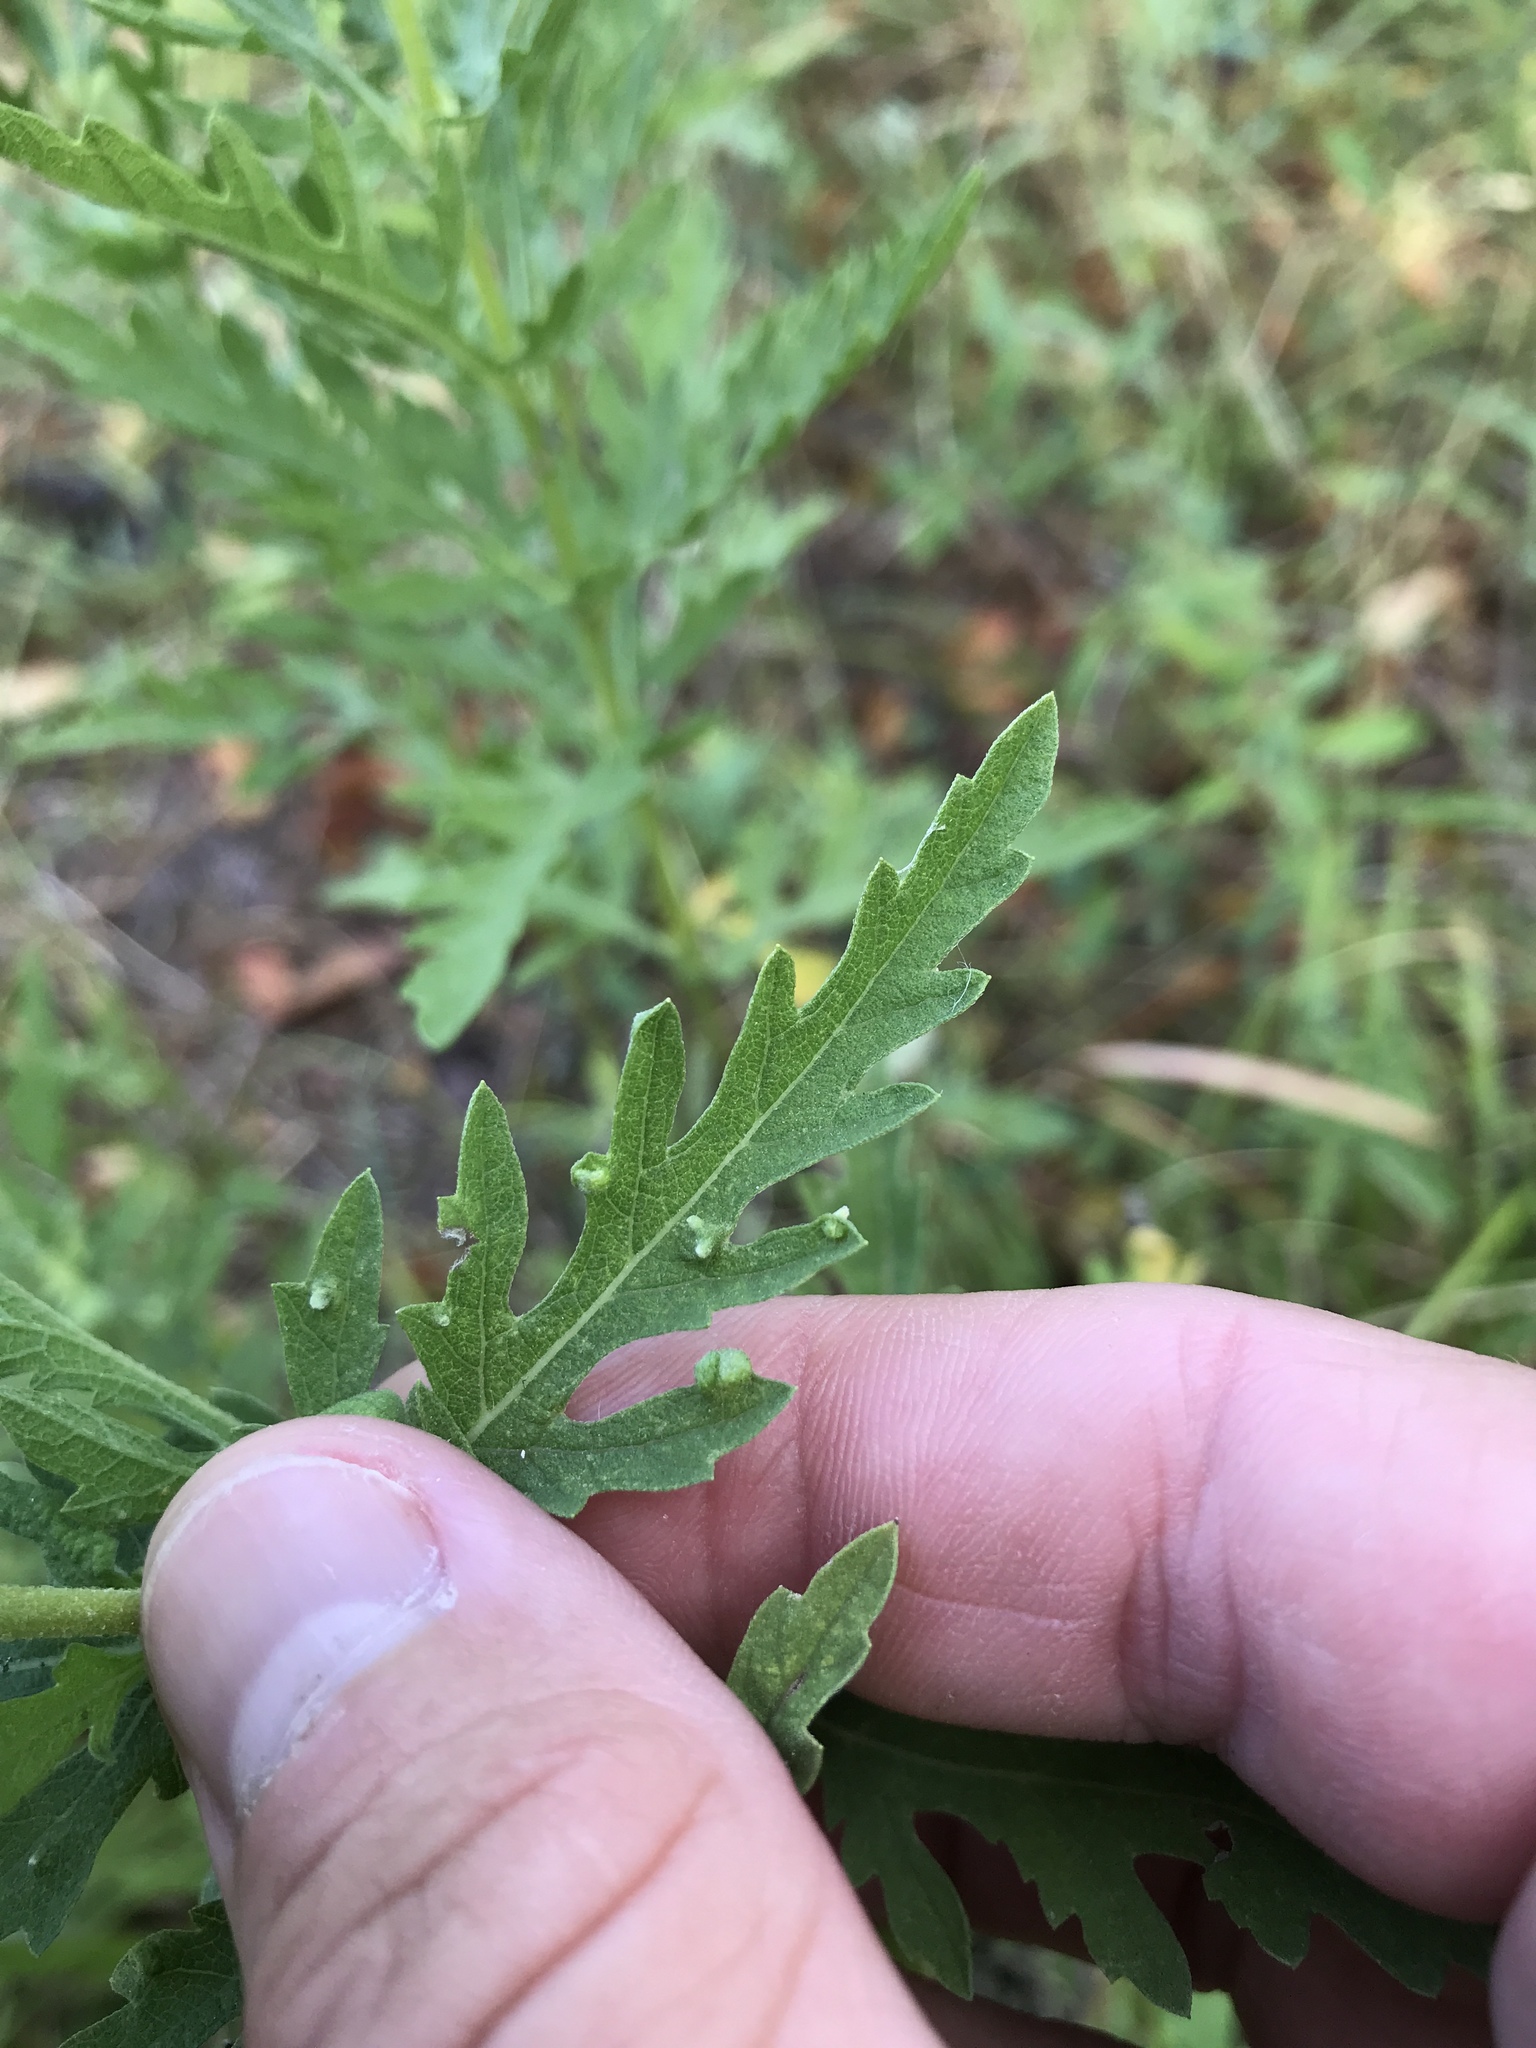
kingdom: Animalia
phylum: Arthropoda
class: Arachnida
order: Trombidiformes
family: Eriophyidae
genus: Aceria
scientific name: Aceria
